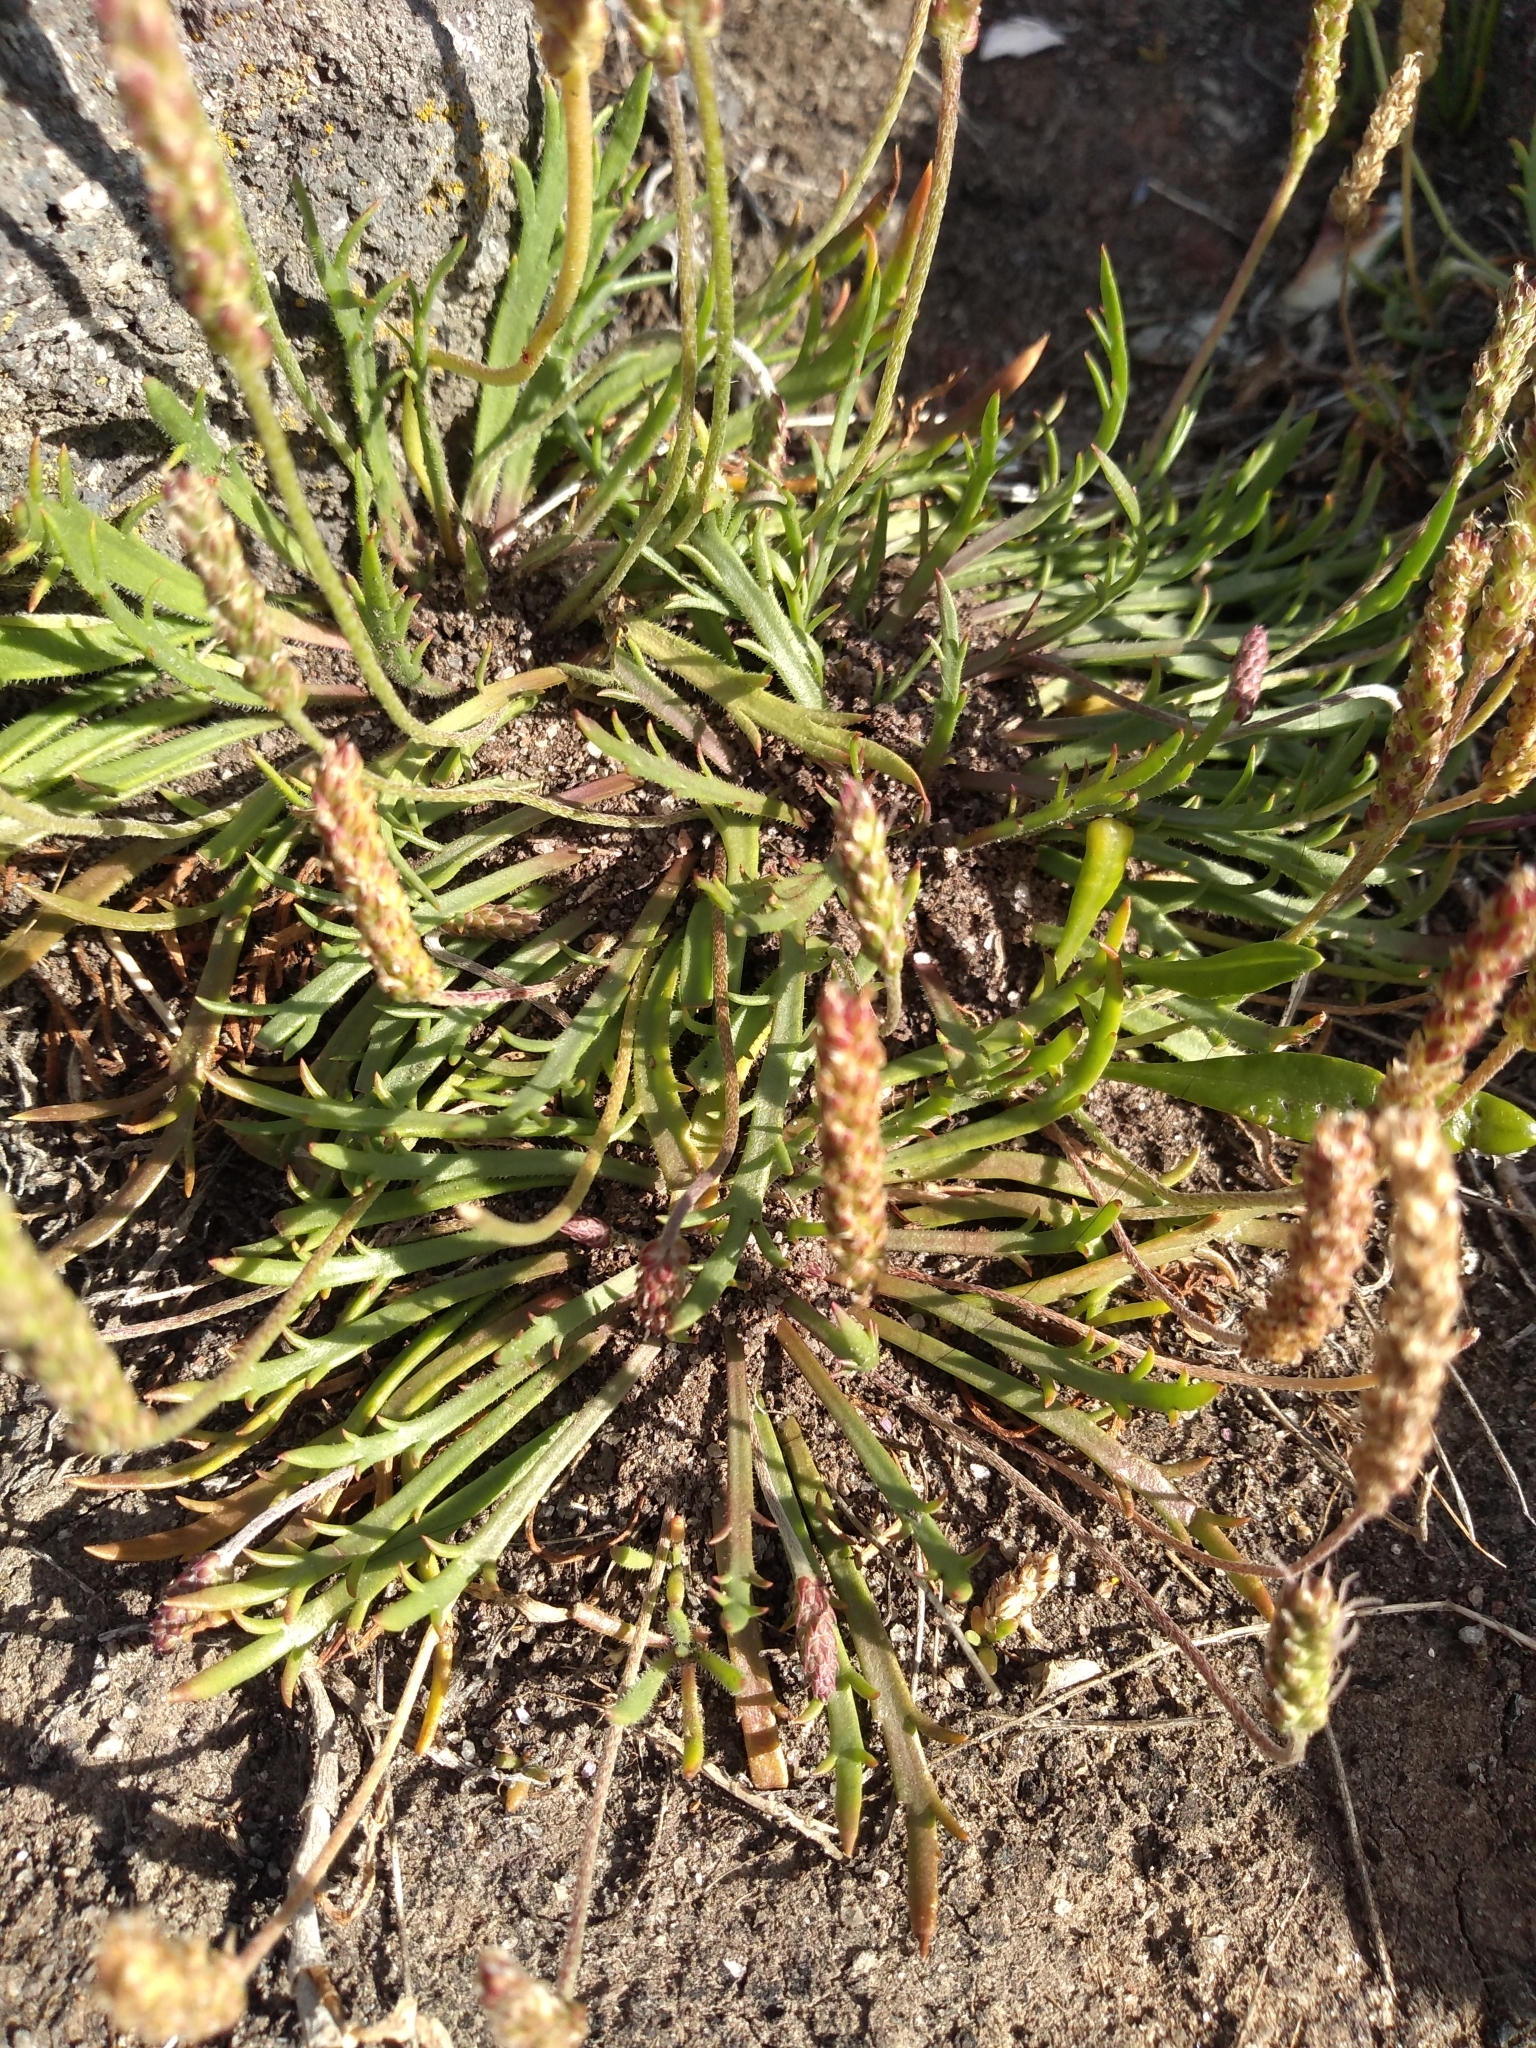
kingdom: Plantae
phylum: Tracheophyta
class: Magnoliopsida
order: Lamiales
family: Plantaginaceae
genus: Plantago
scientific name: Plantago coronopus
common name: Buck's-horn plantain
